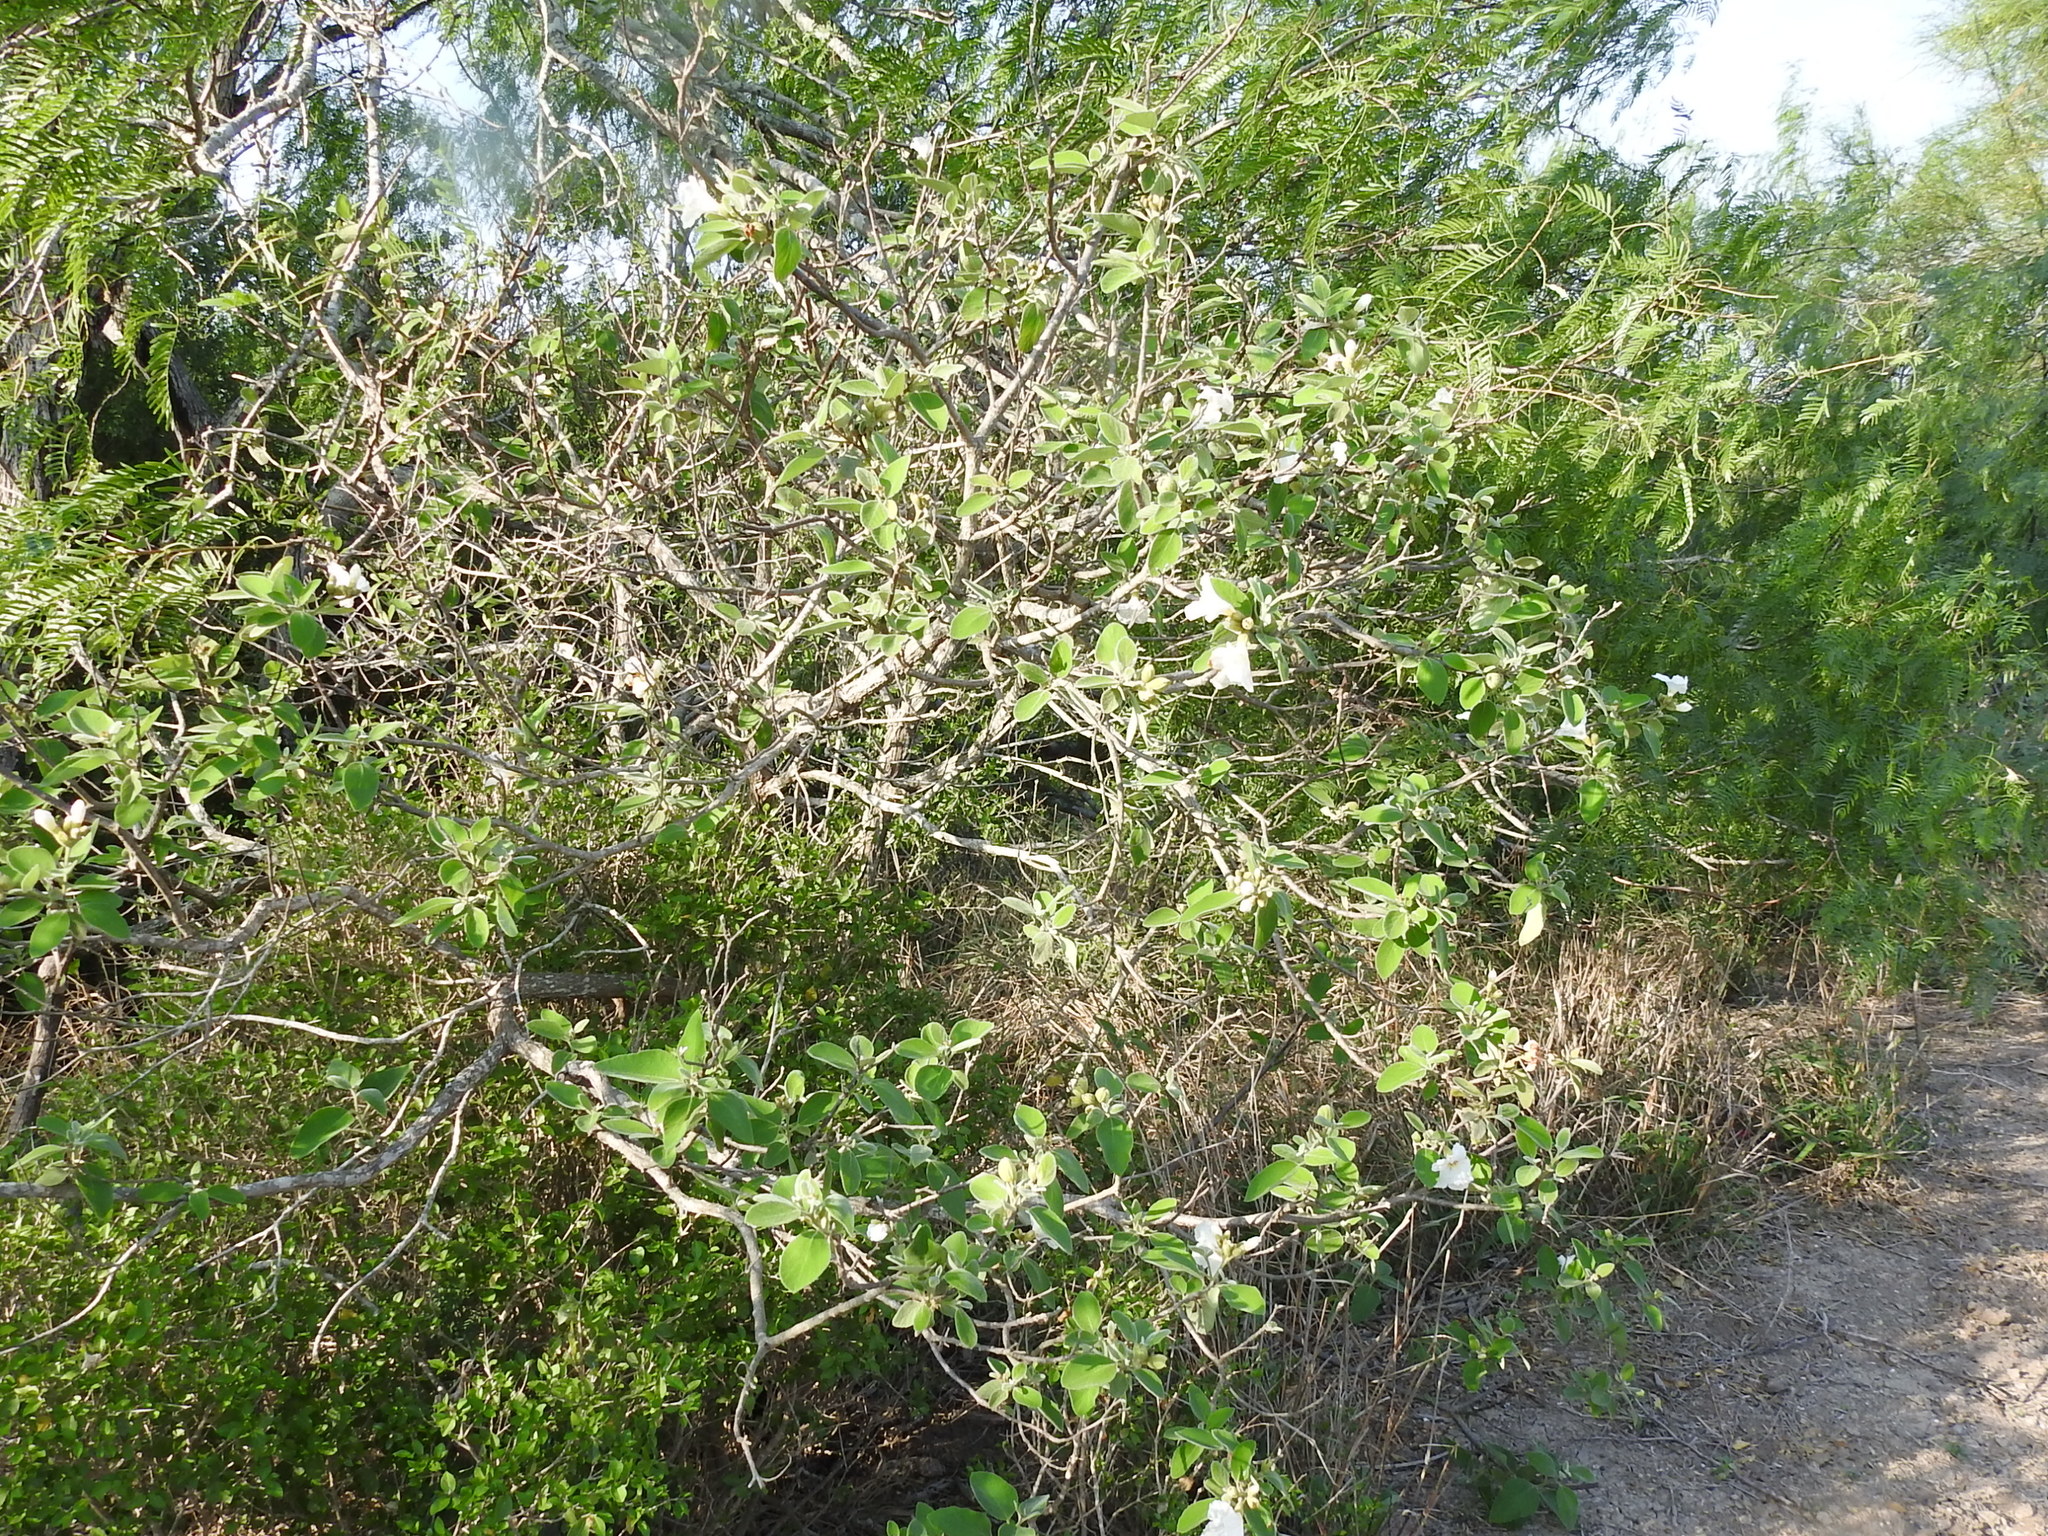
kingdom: Plantae
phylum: Tracheophyta
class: Magnoliopsida
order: Boraginales
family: Cordiaceae
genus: Cordia
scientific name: Cordia boissieri
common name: Mexican-olive
